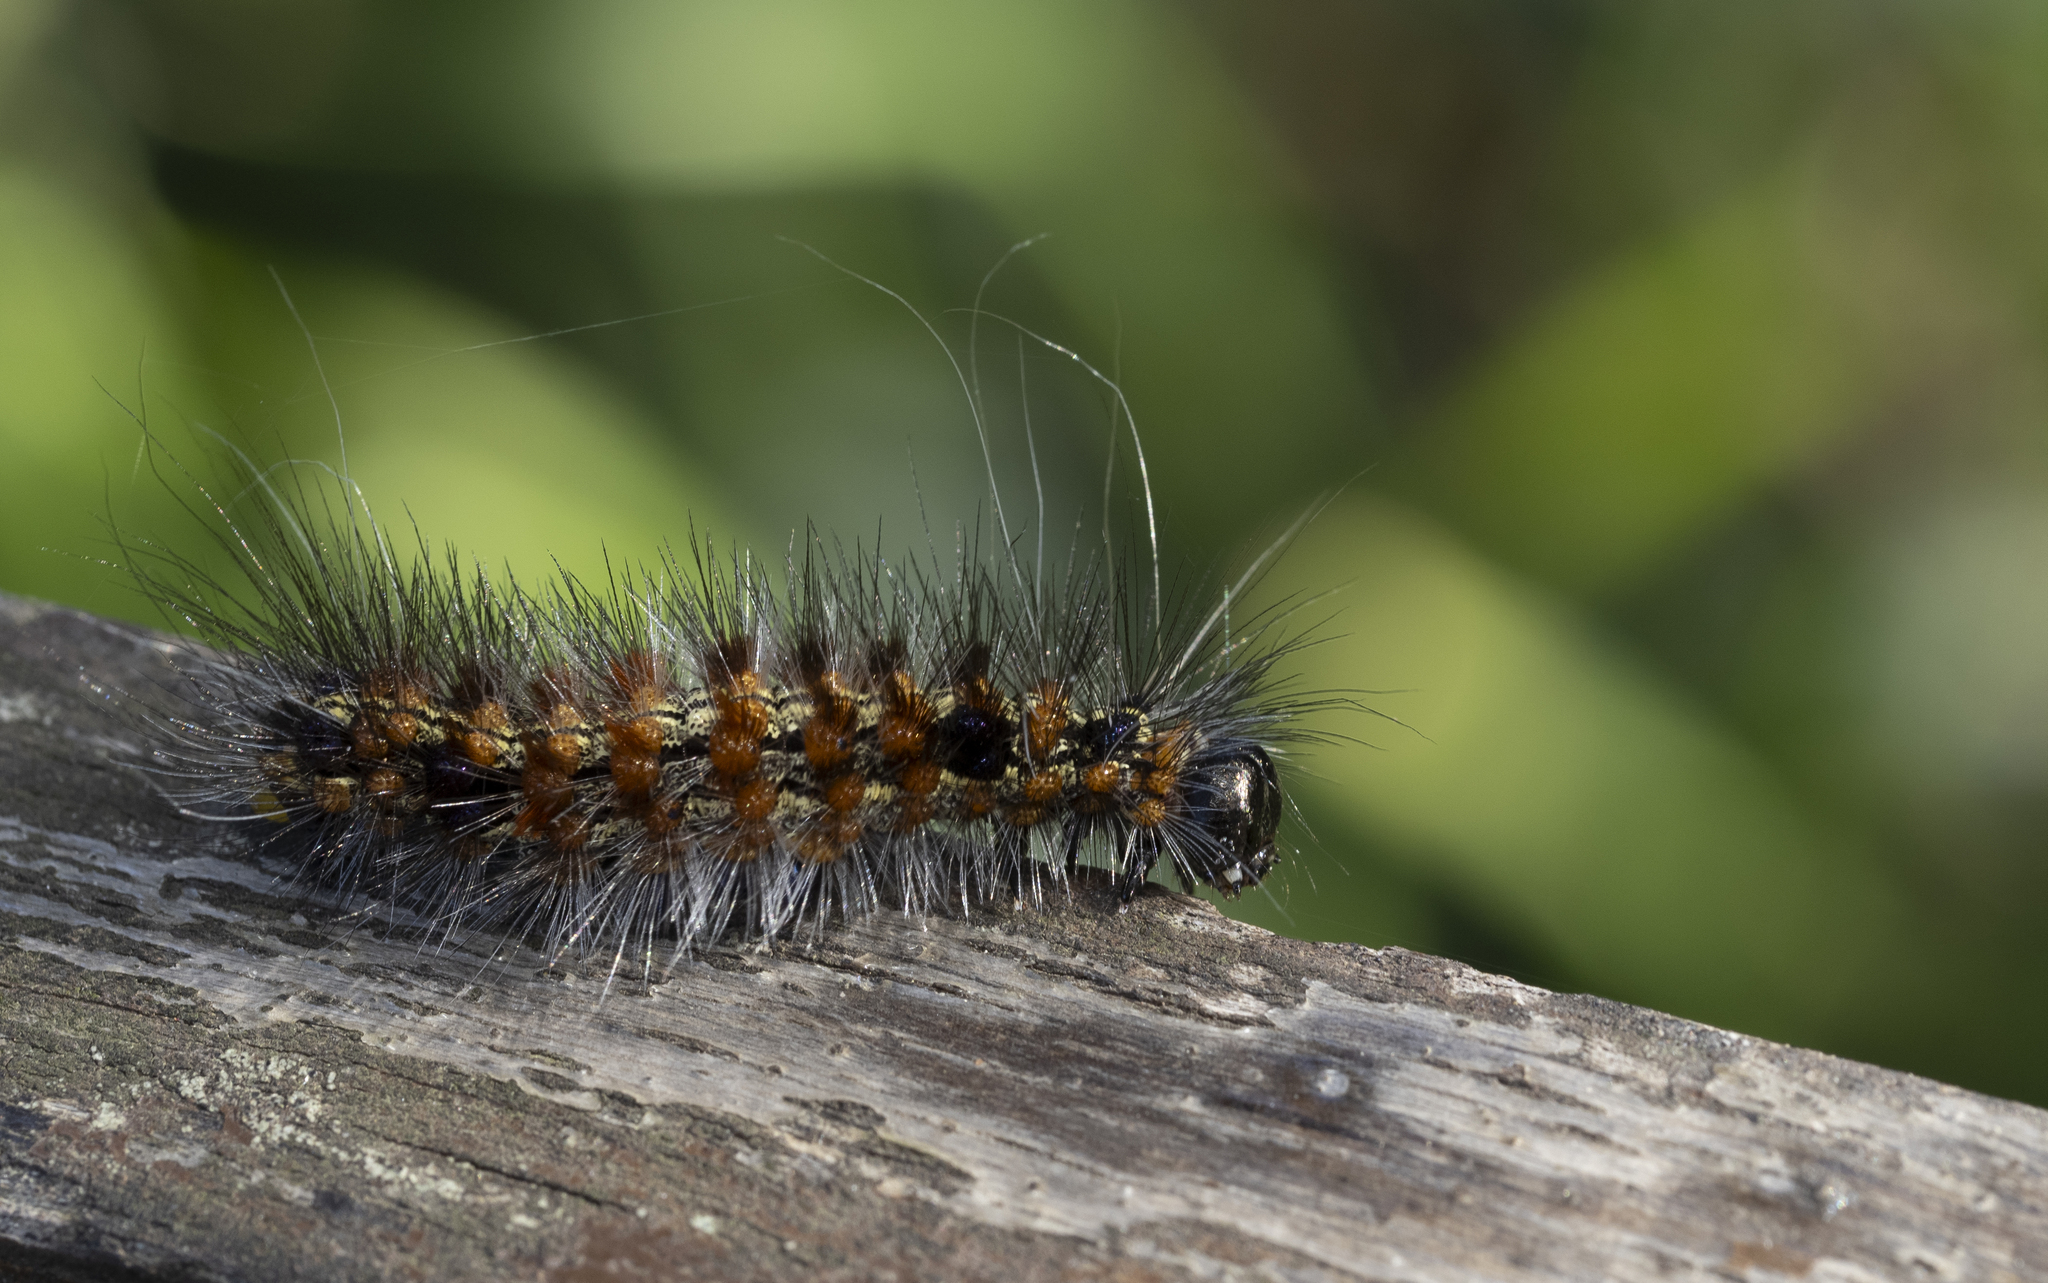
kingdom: Animalia
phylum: Arthropoda
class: Insecta
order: Lepidoptera
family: Erebidae
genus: Dysschema
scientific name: Dysschema sacrifica
